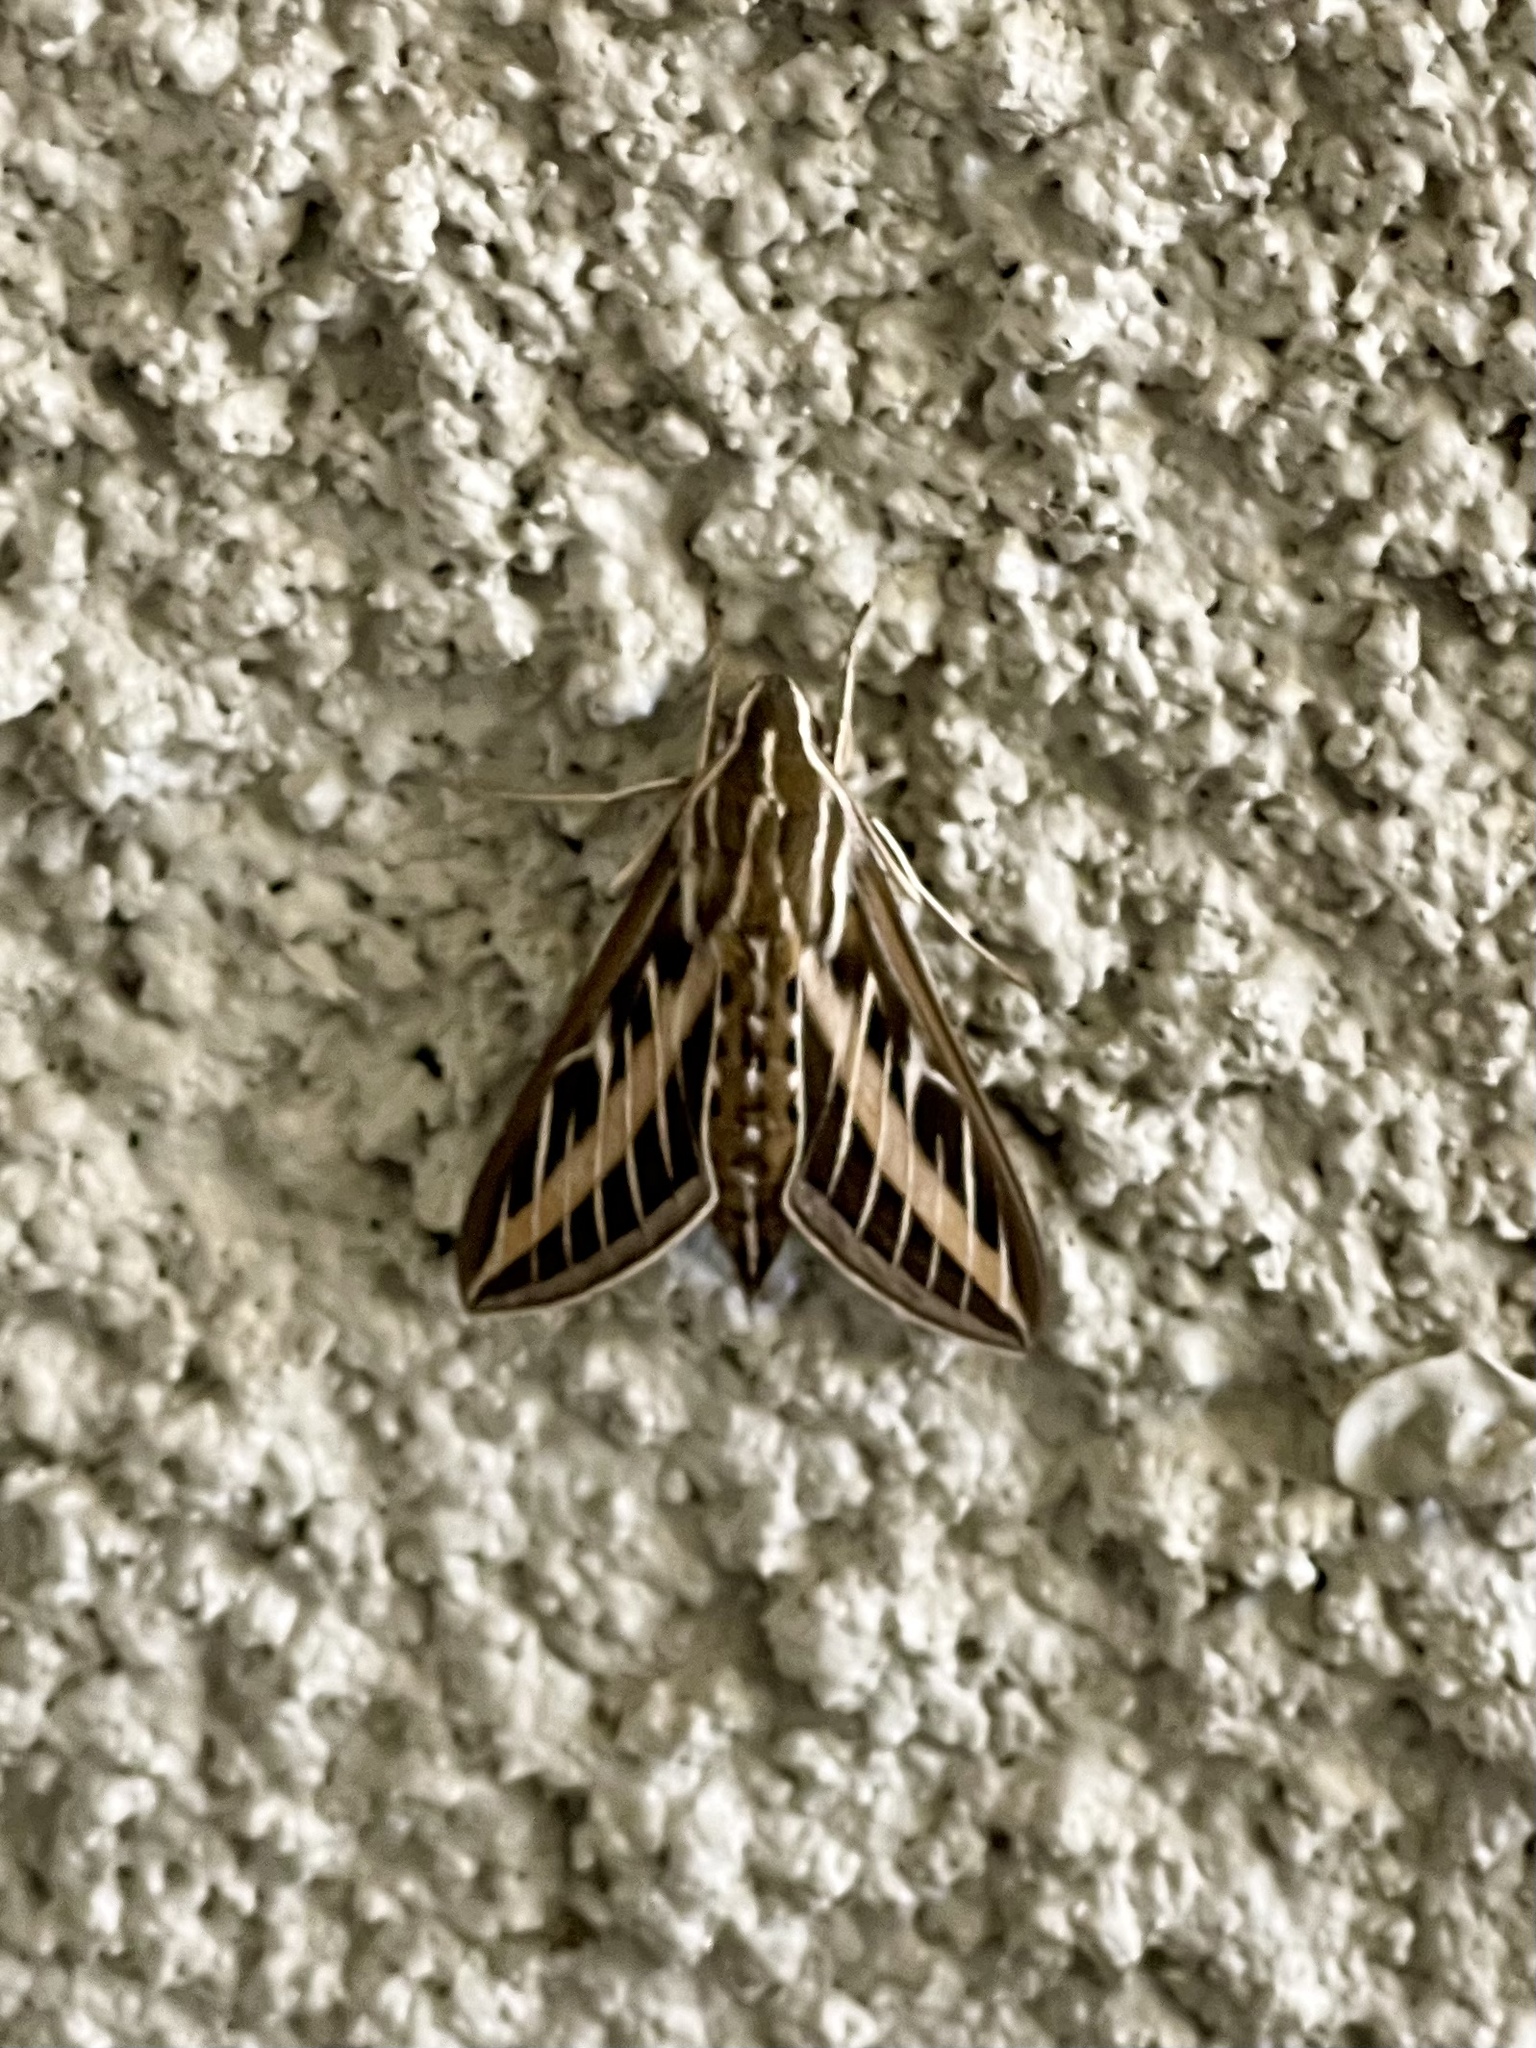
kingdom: Animalia
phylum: Arthropoda
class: Insecta
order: Lepidoptera
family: Sphingidae
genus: Hyles
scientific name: Hyles lineata
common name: White-lined sphinx
